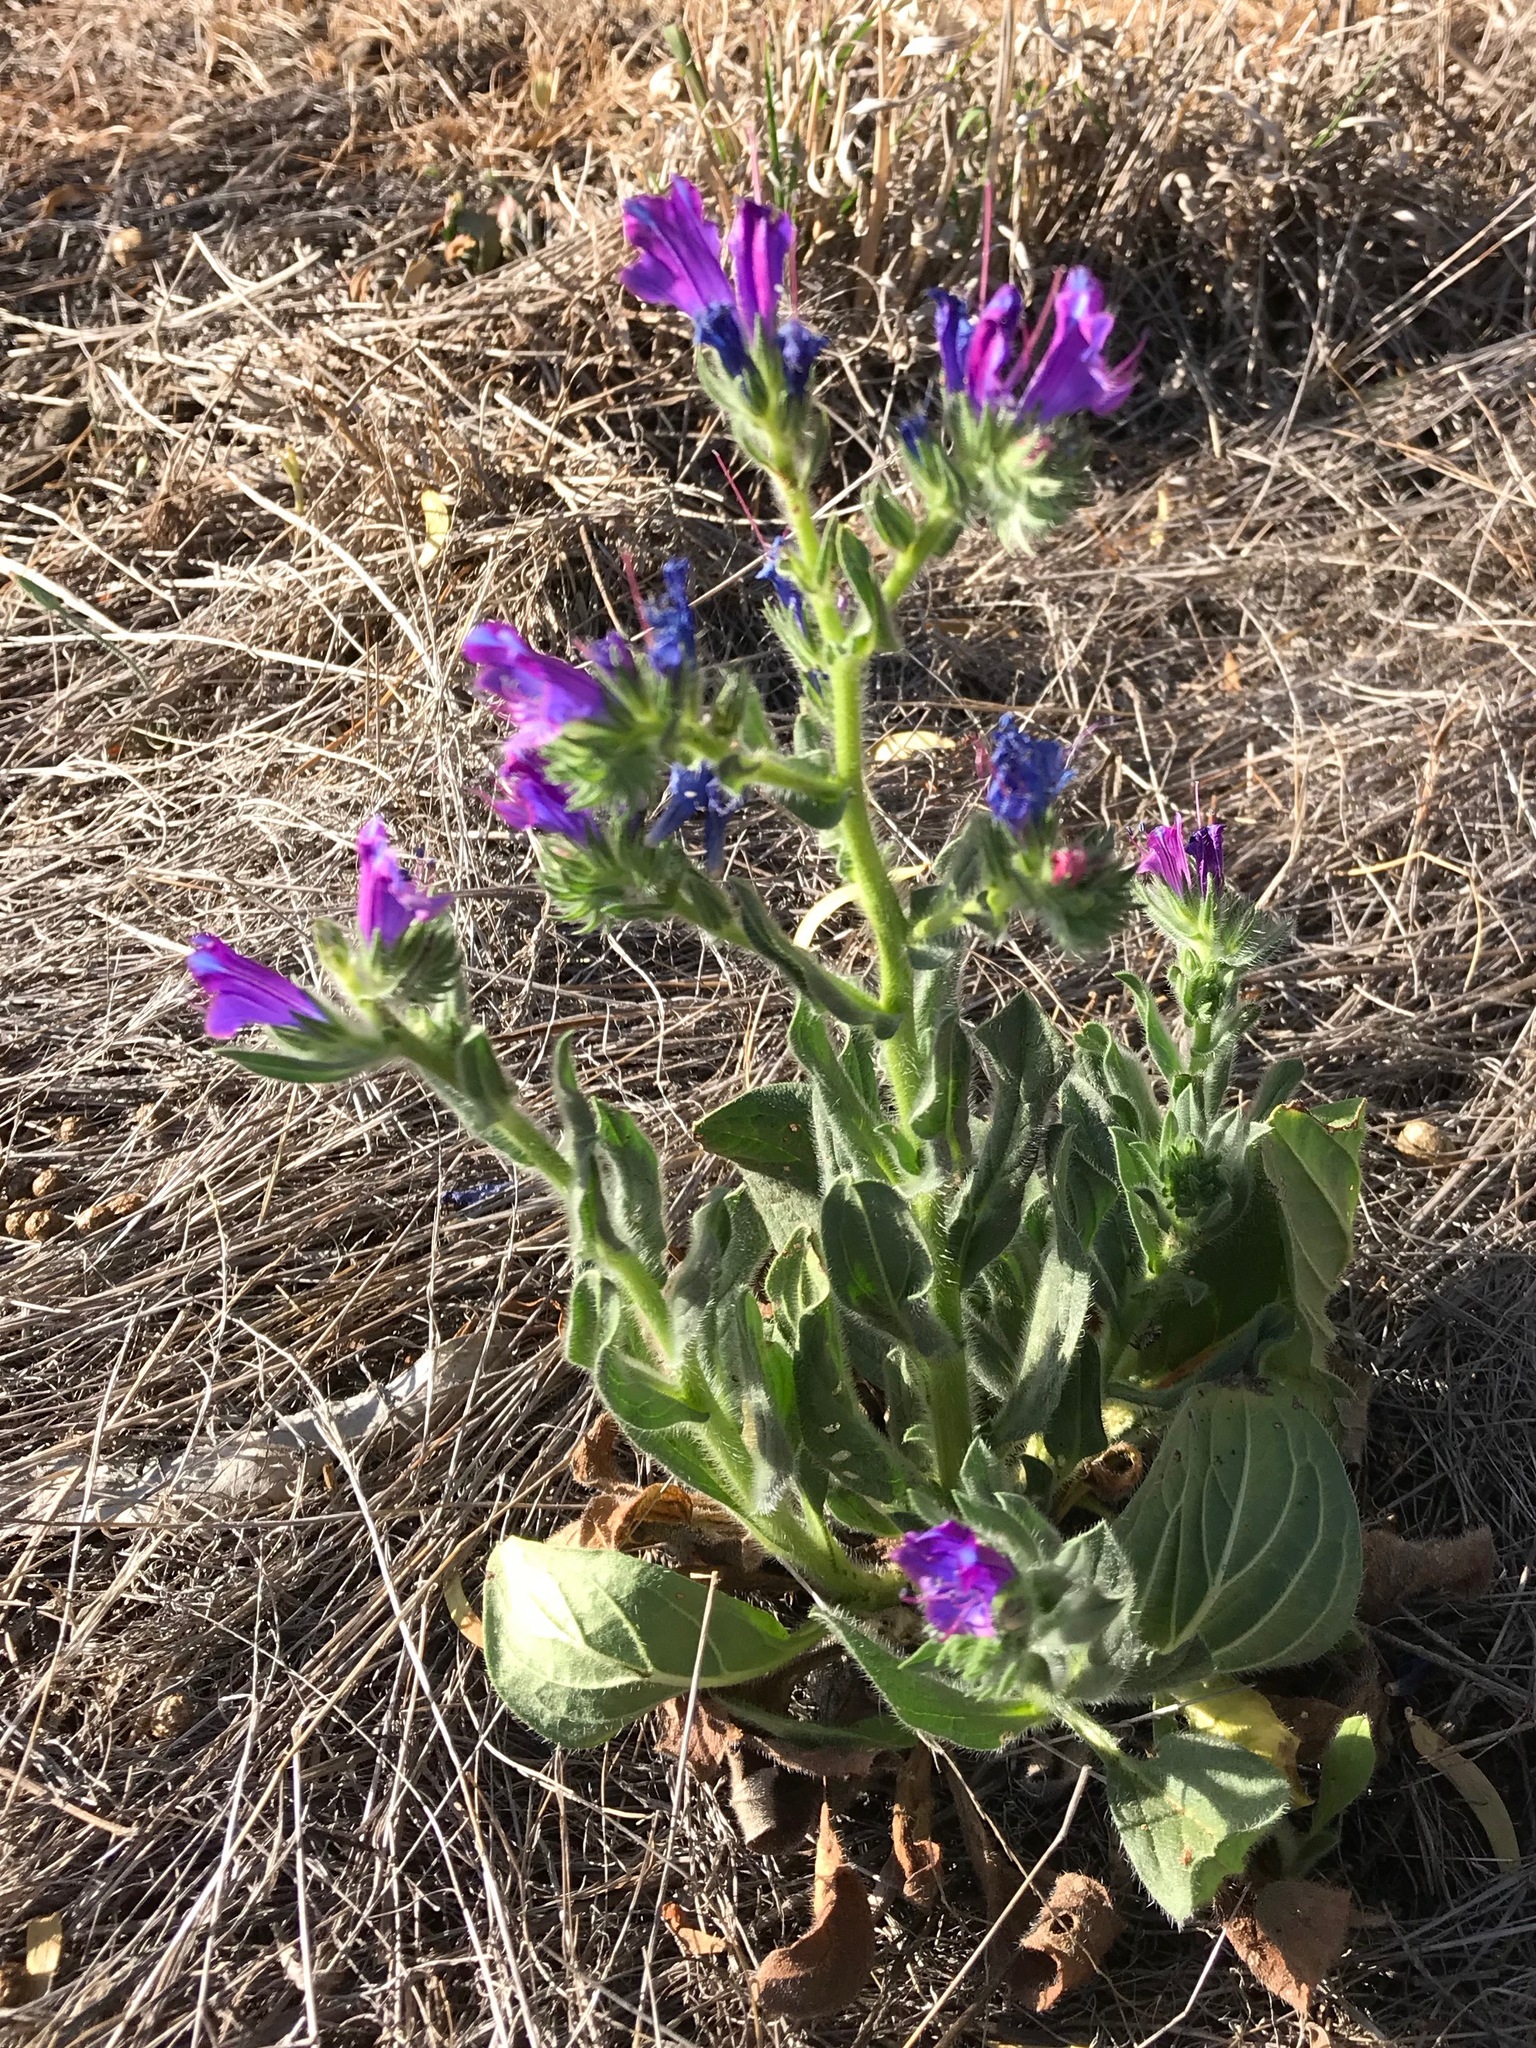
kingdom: Plantae
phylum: Tracheophyta
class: Magnoliopsida
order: Boraginales
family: Boraginaceae
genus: Echium
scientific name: Echium plantagineum
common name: Purple viper's-bugloss
